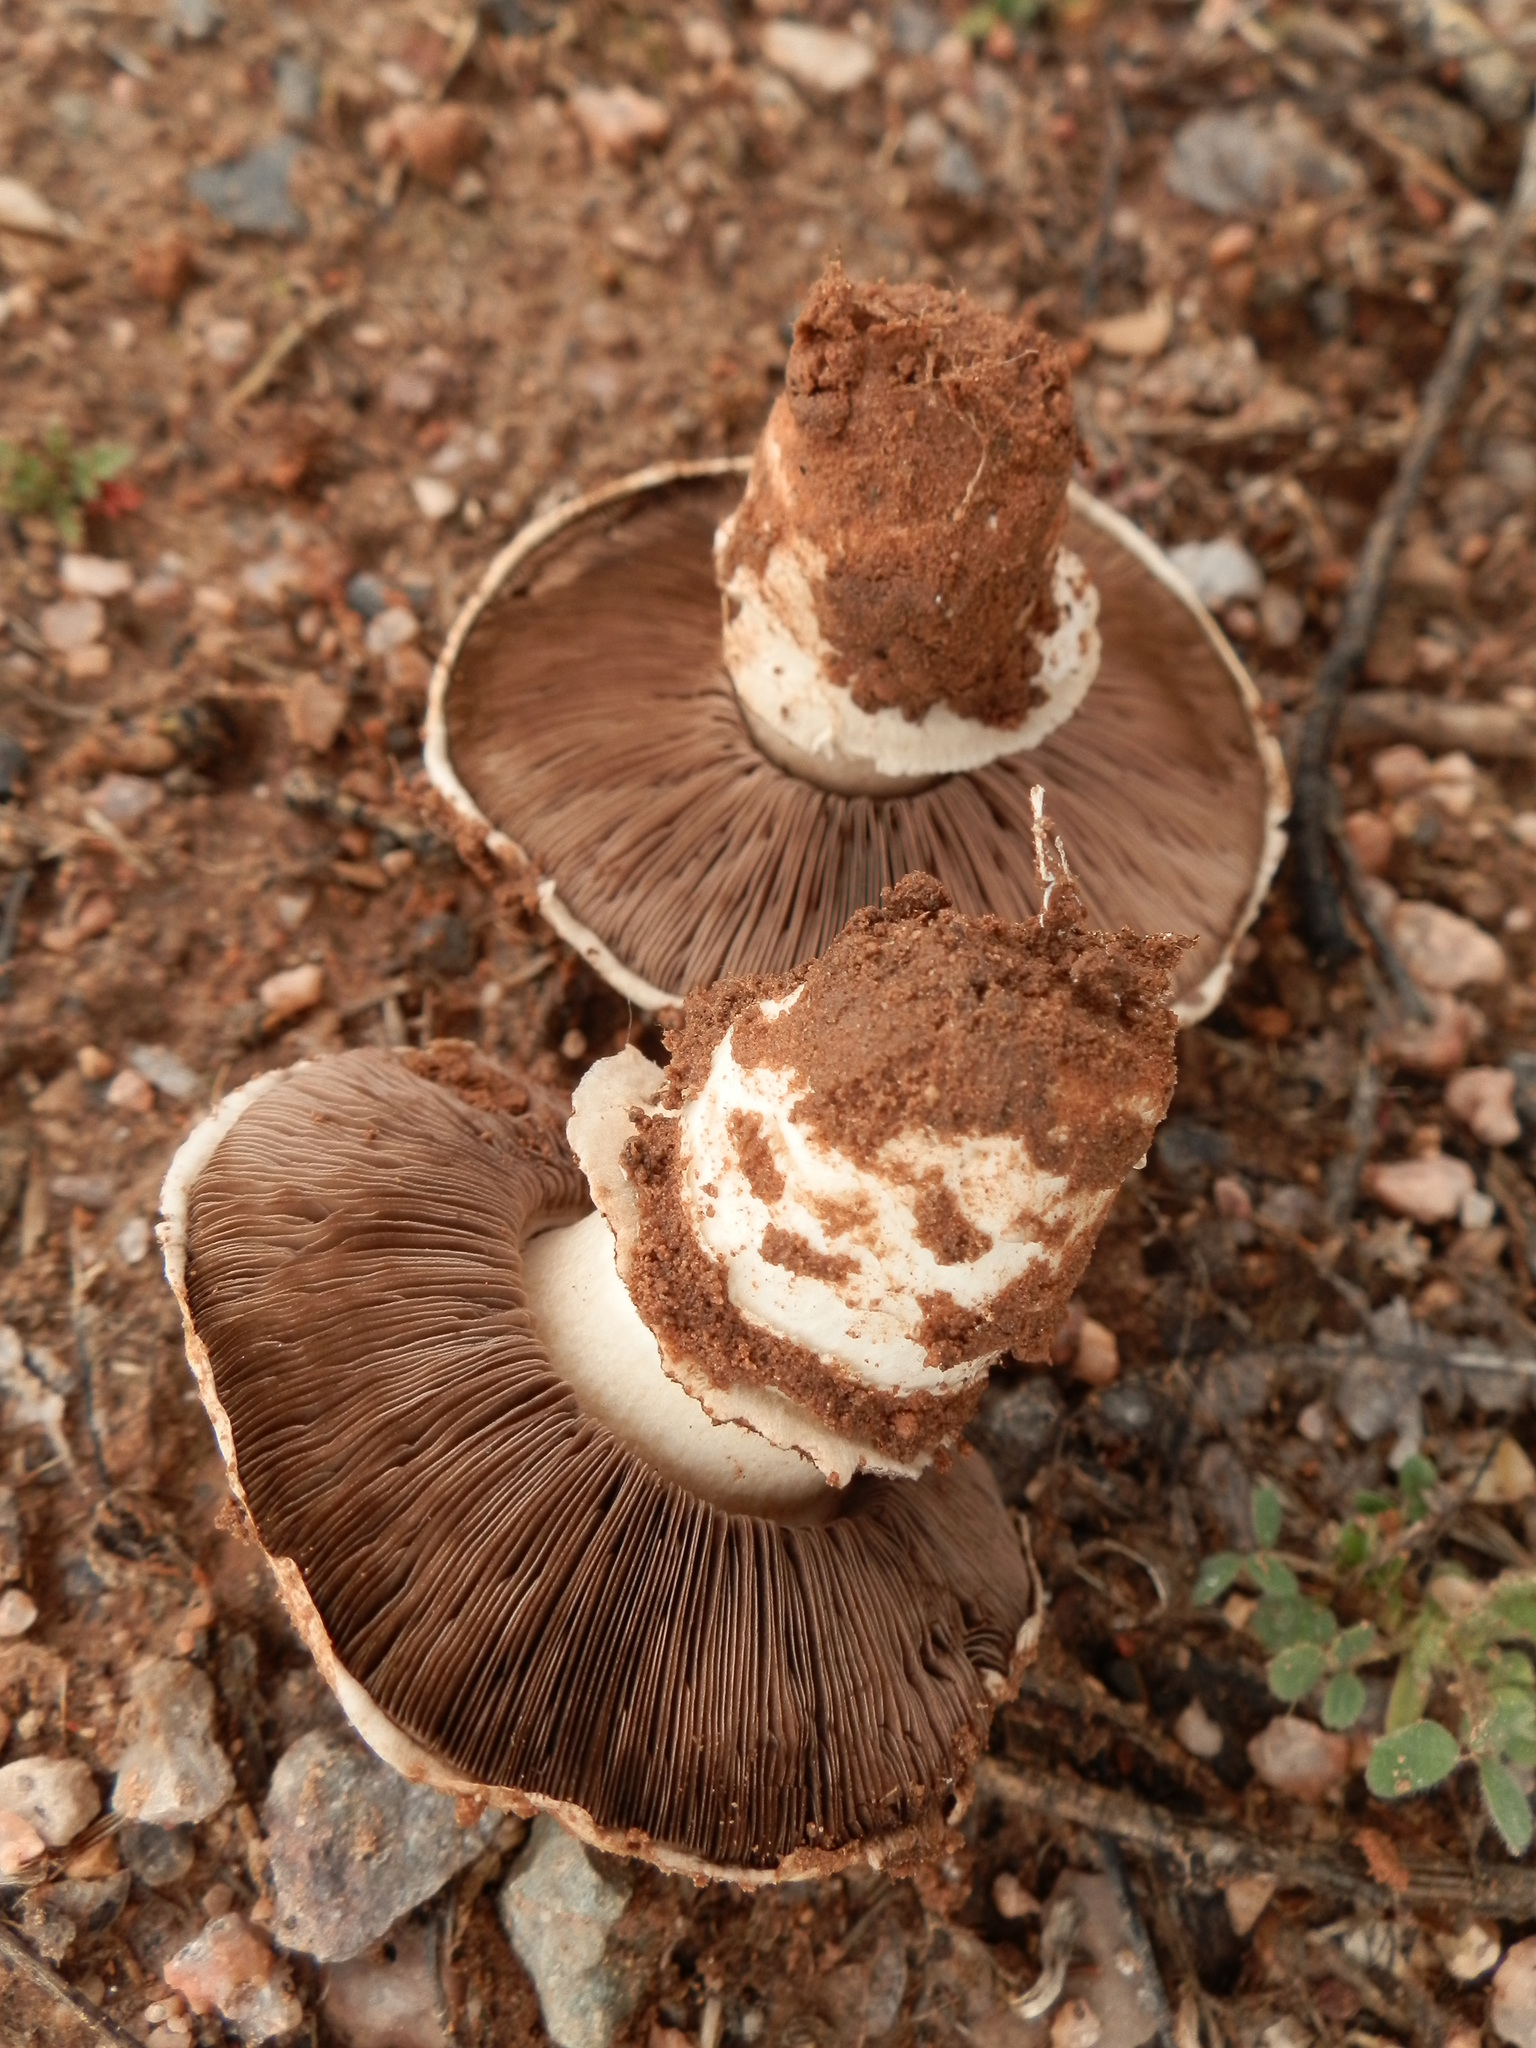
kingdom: Fungi
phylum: Basidiomycota
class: Agaricomycetes
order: Agaricales
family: Agaricaceae
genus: Agaricus
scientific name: Agaricus bitorquis
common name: Pavement mushroom
